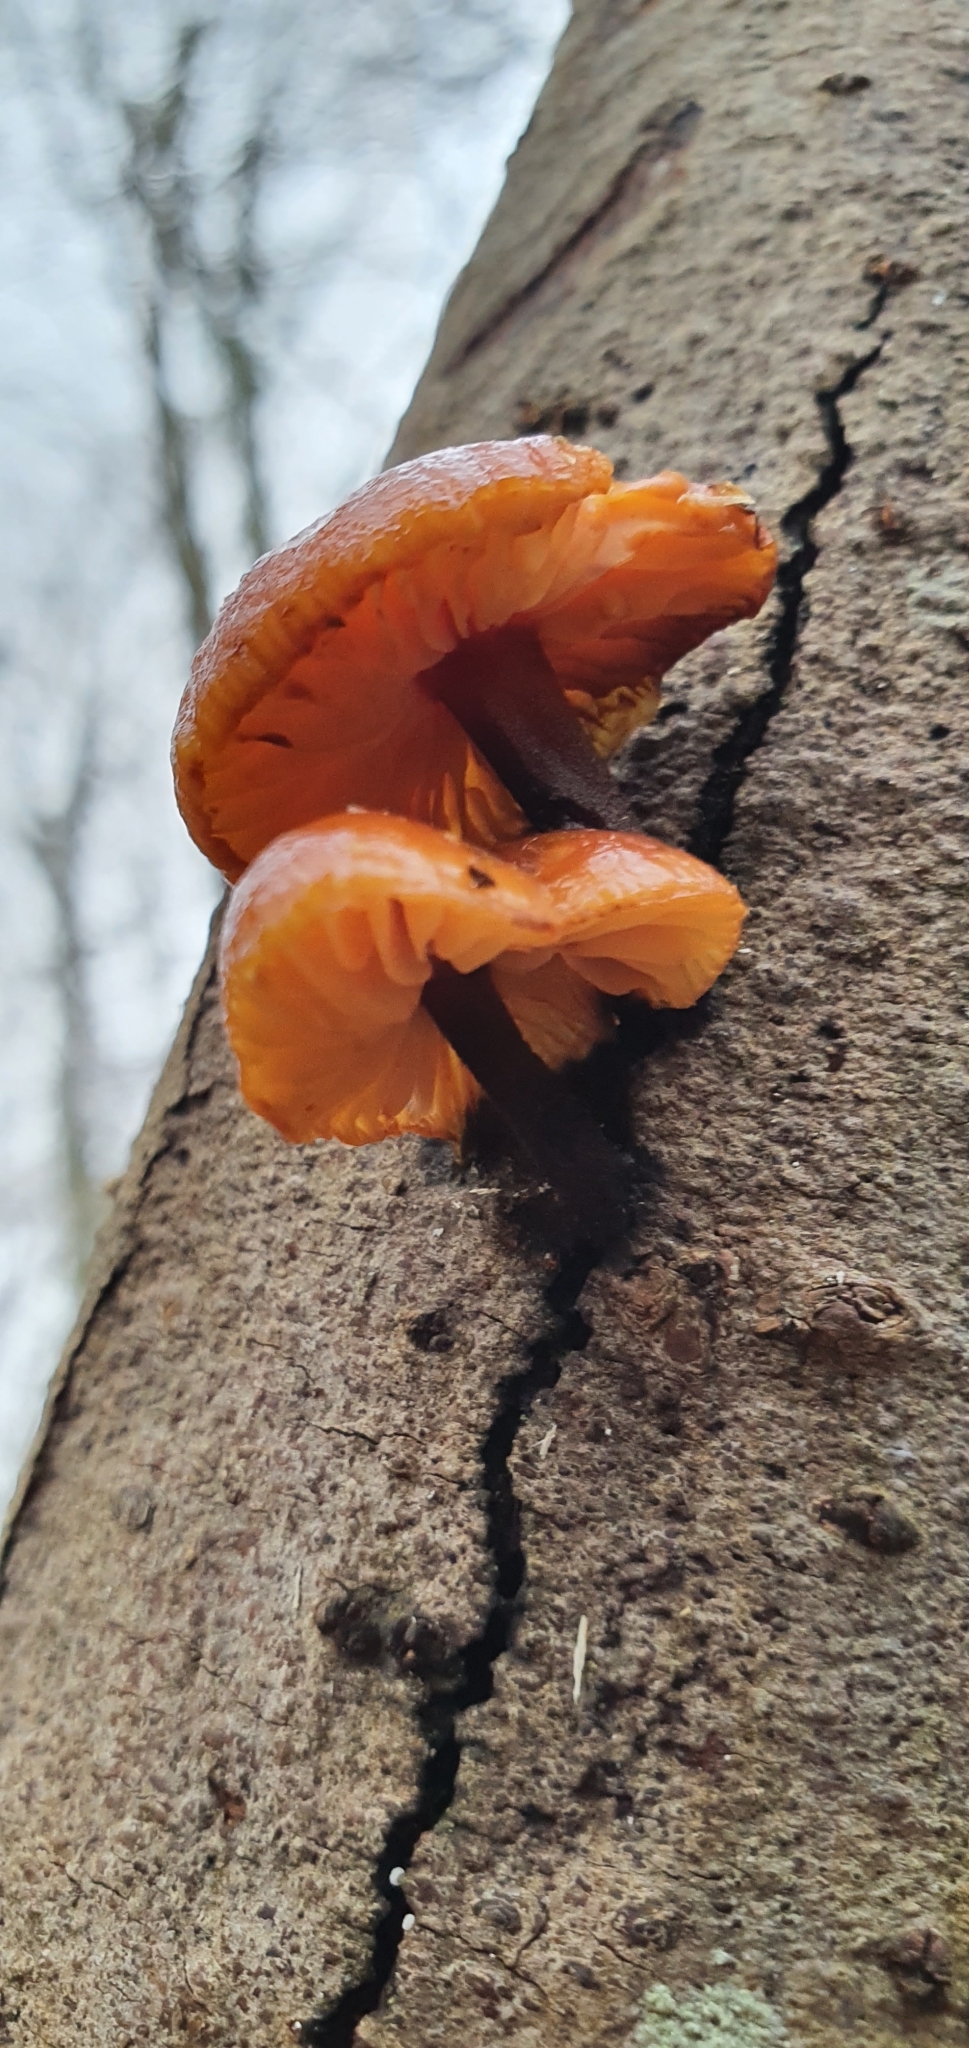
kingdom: Fungi
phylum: Basidiomycota
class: Agaricomycetes
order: Agaricales
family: Physalacriaceae
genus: Flammulina
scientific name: Flammulina
